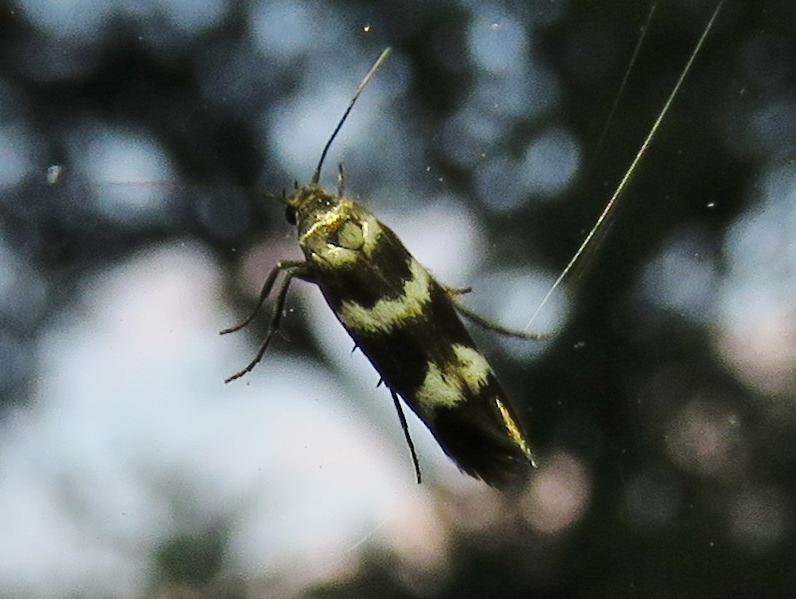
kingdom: Animalia
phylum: Arthropoda
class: Insecta
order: Lepidoptera
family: Scythrididae
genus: Scythris
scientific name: Scythris trivinctella
